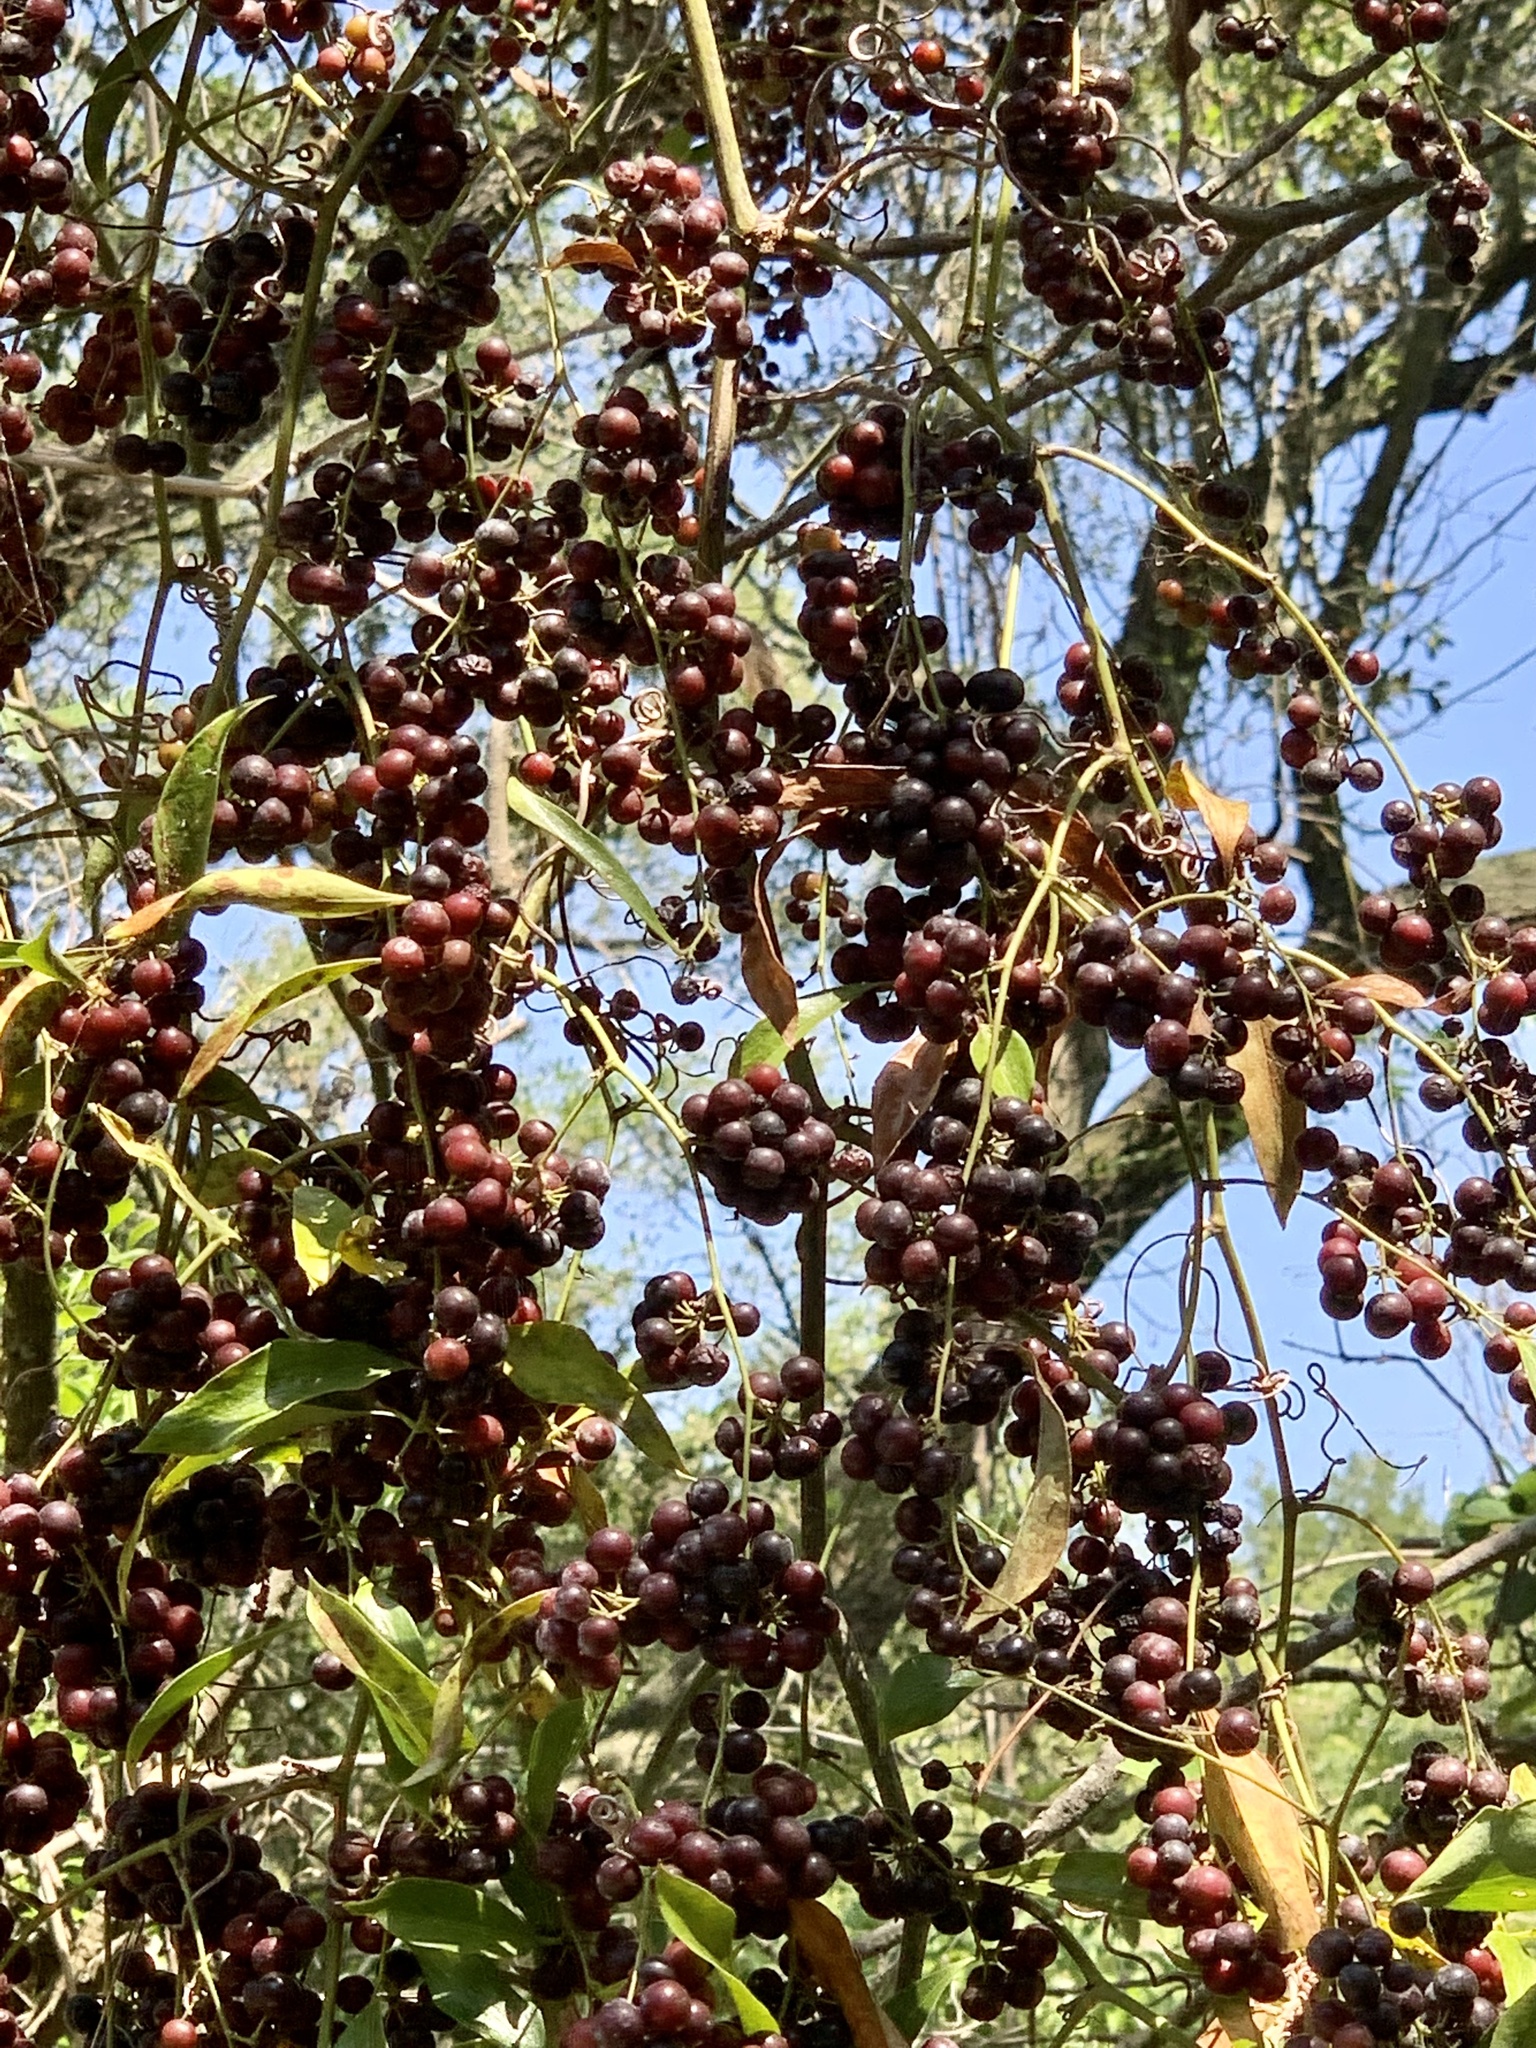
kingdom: Plantae
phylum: Tracheophyta
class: Liliopsida
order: Liliales
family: Smilacaceae
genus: Smilax
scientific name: Smilax maritima
